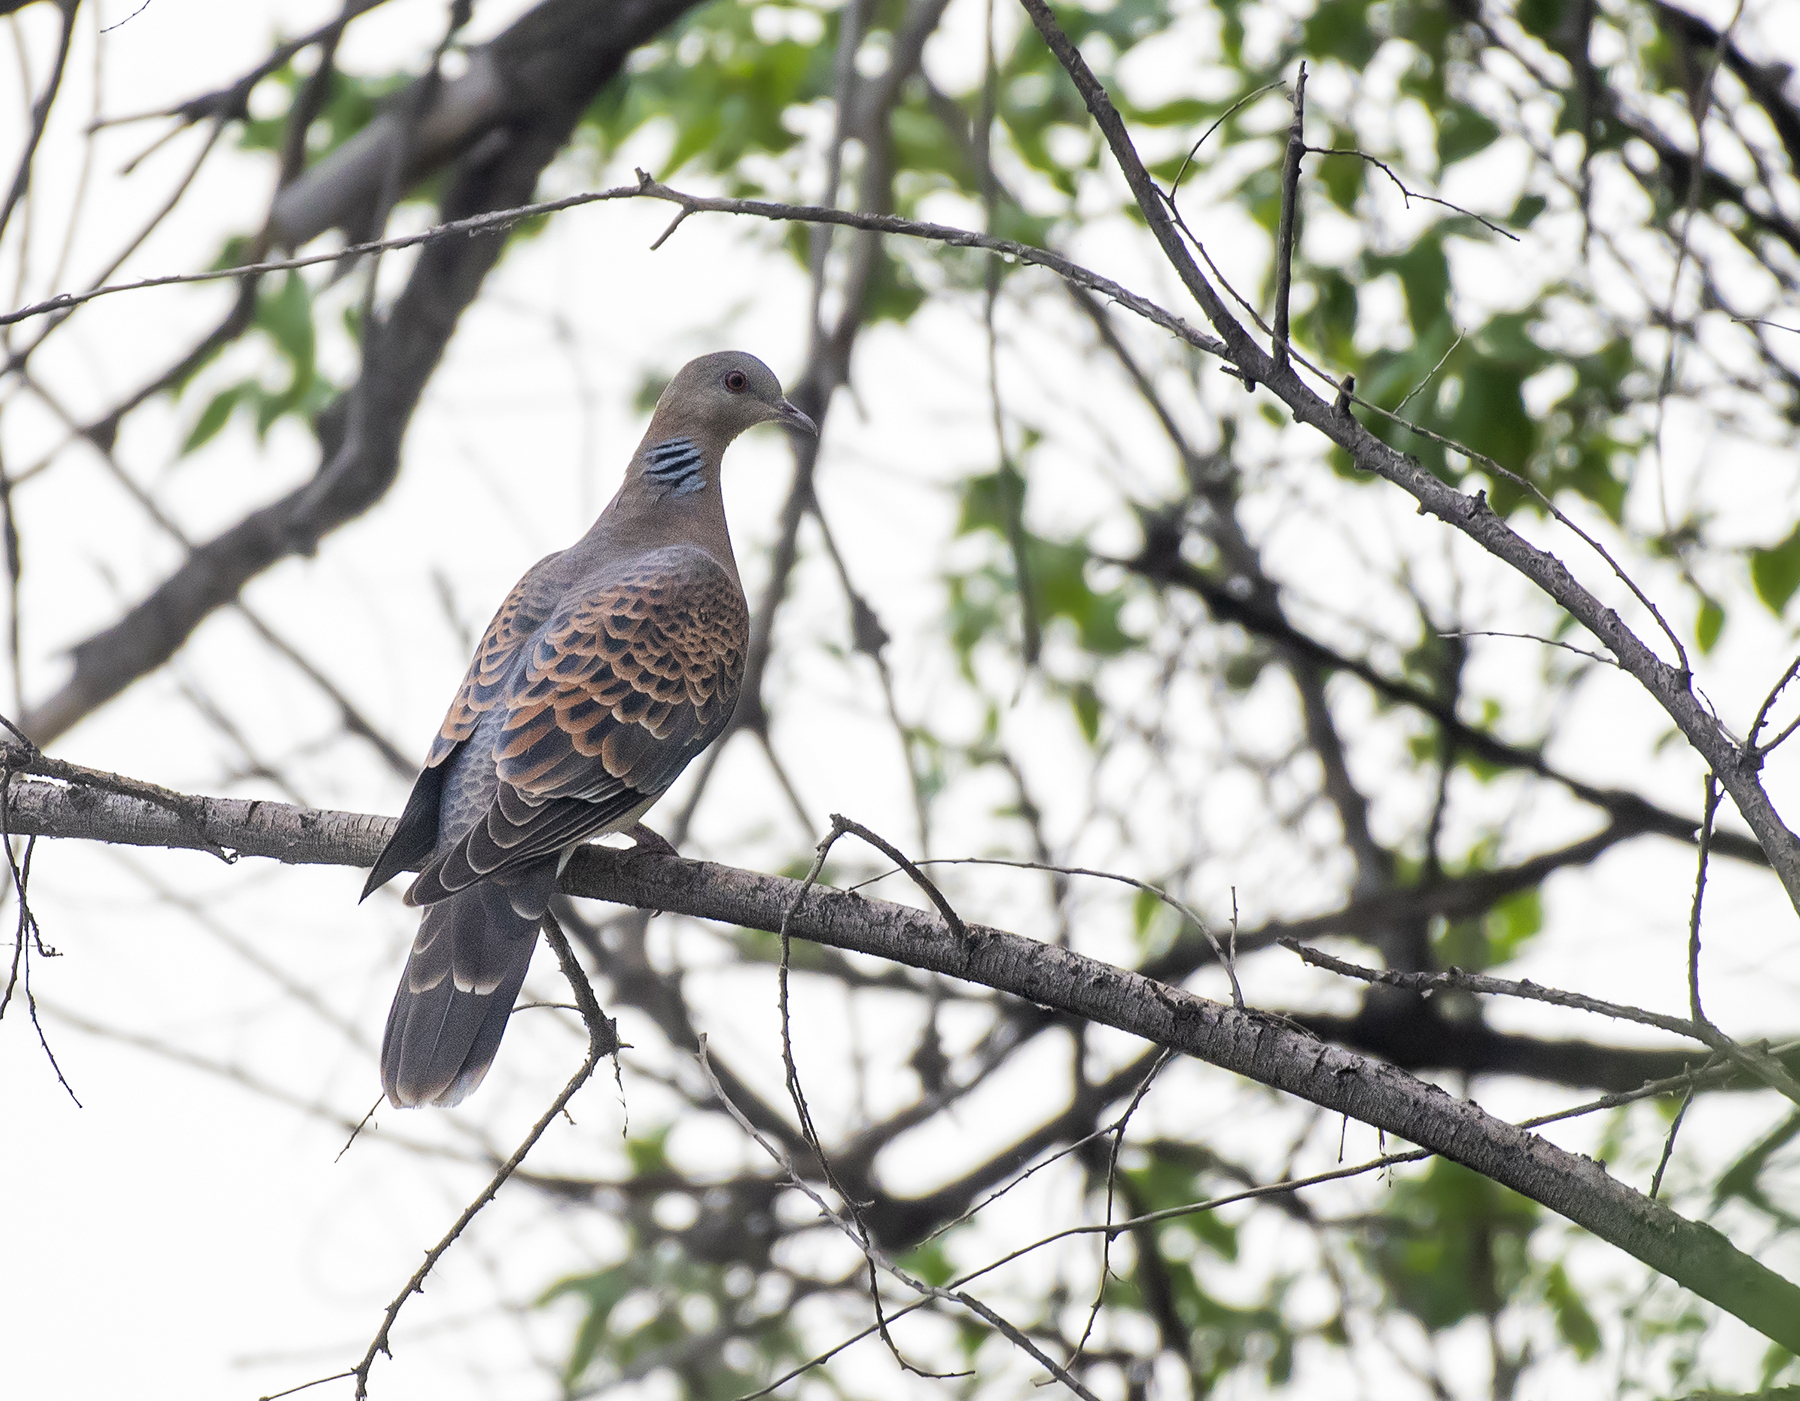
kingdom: Animalia
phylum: Chordata
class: Aves
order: Columbiformes
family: Columbidae
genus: Streptopelia
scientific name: Streptopelia orientalis
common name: Oriental turtle dove
